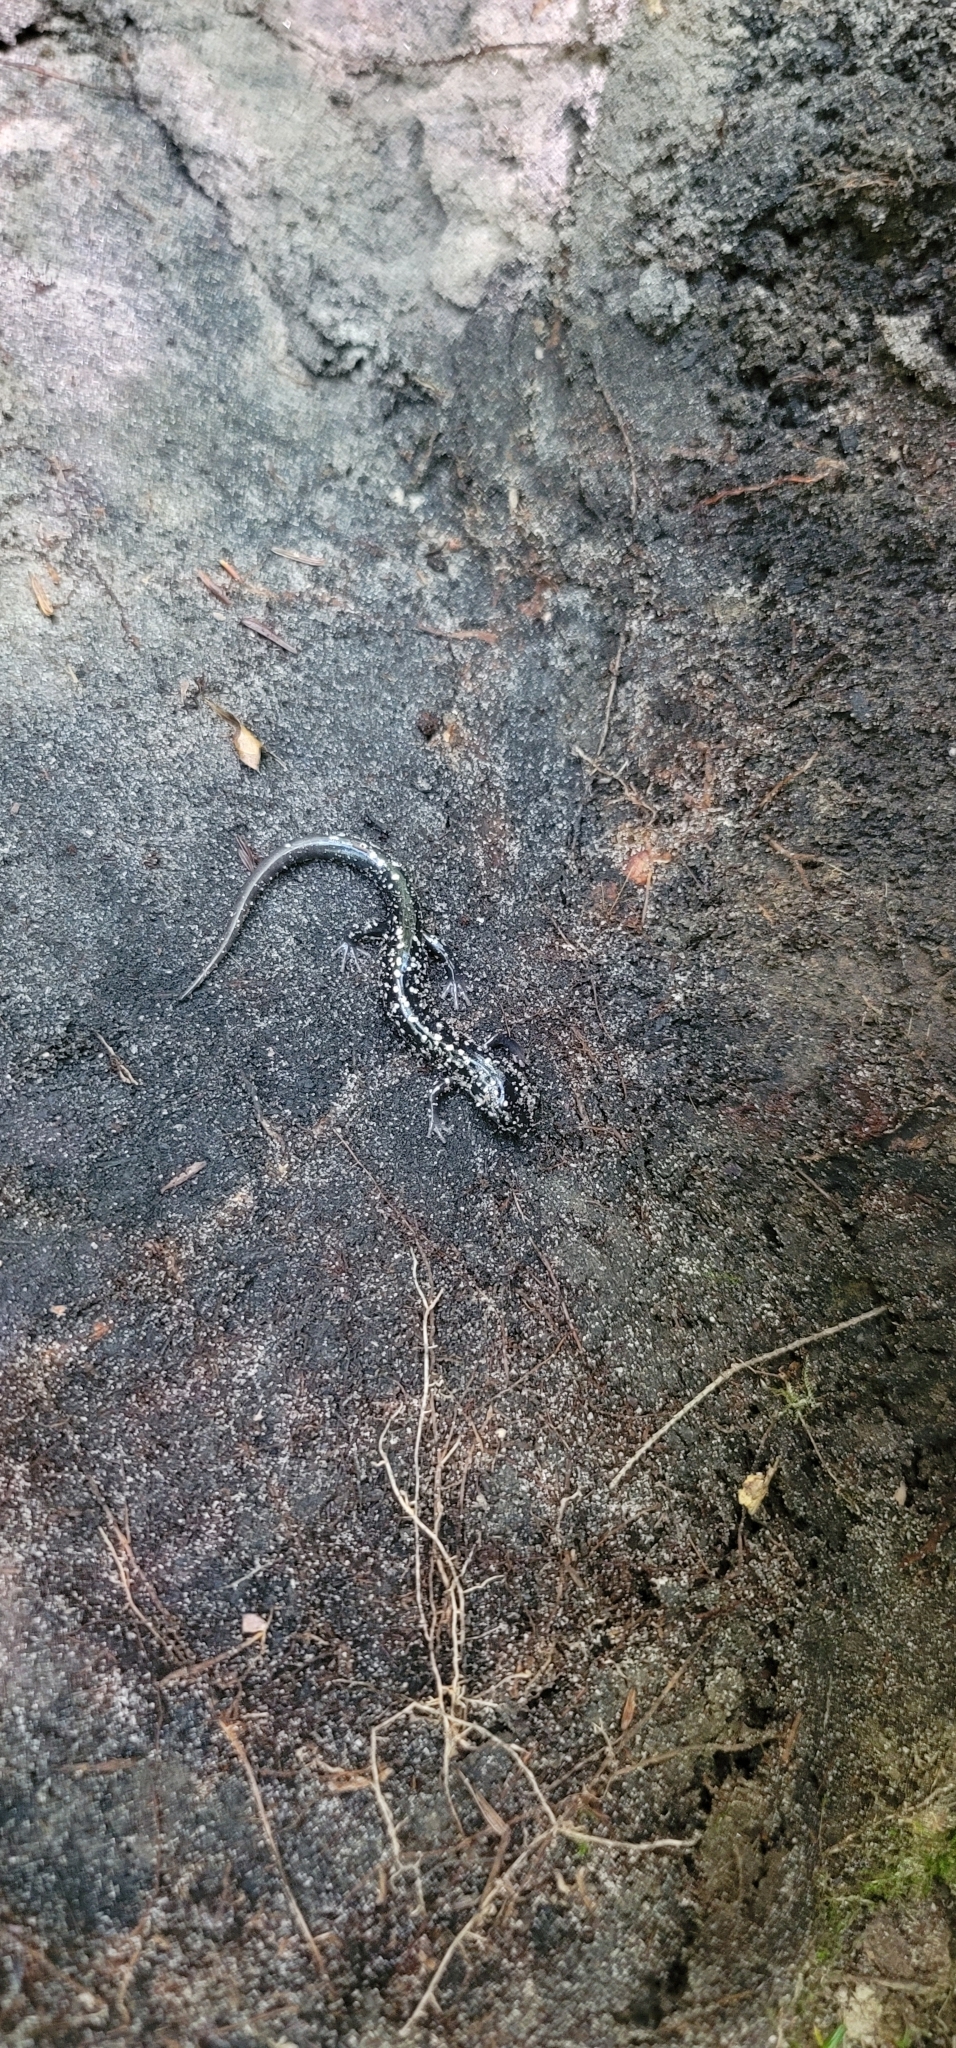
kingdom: Animalia
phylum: Chordata
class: Amphibia
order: Caudata
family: Plethodontidae
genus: Plethodon
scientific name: Plethodon glutinosus
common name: Northern slimy salamander
